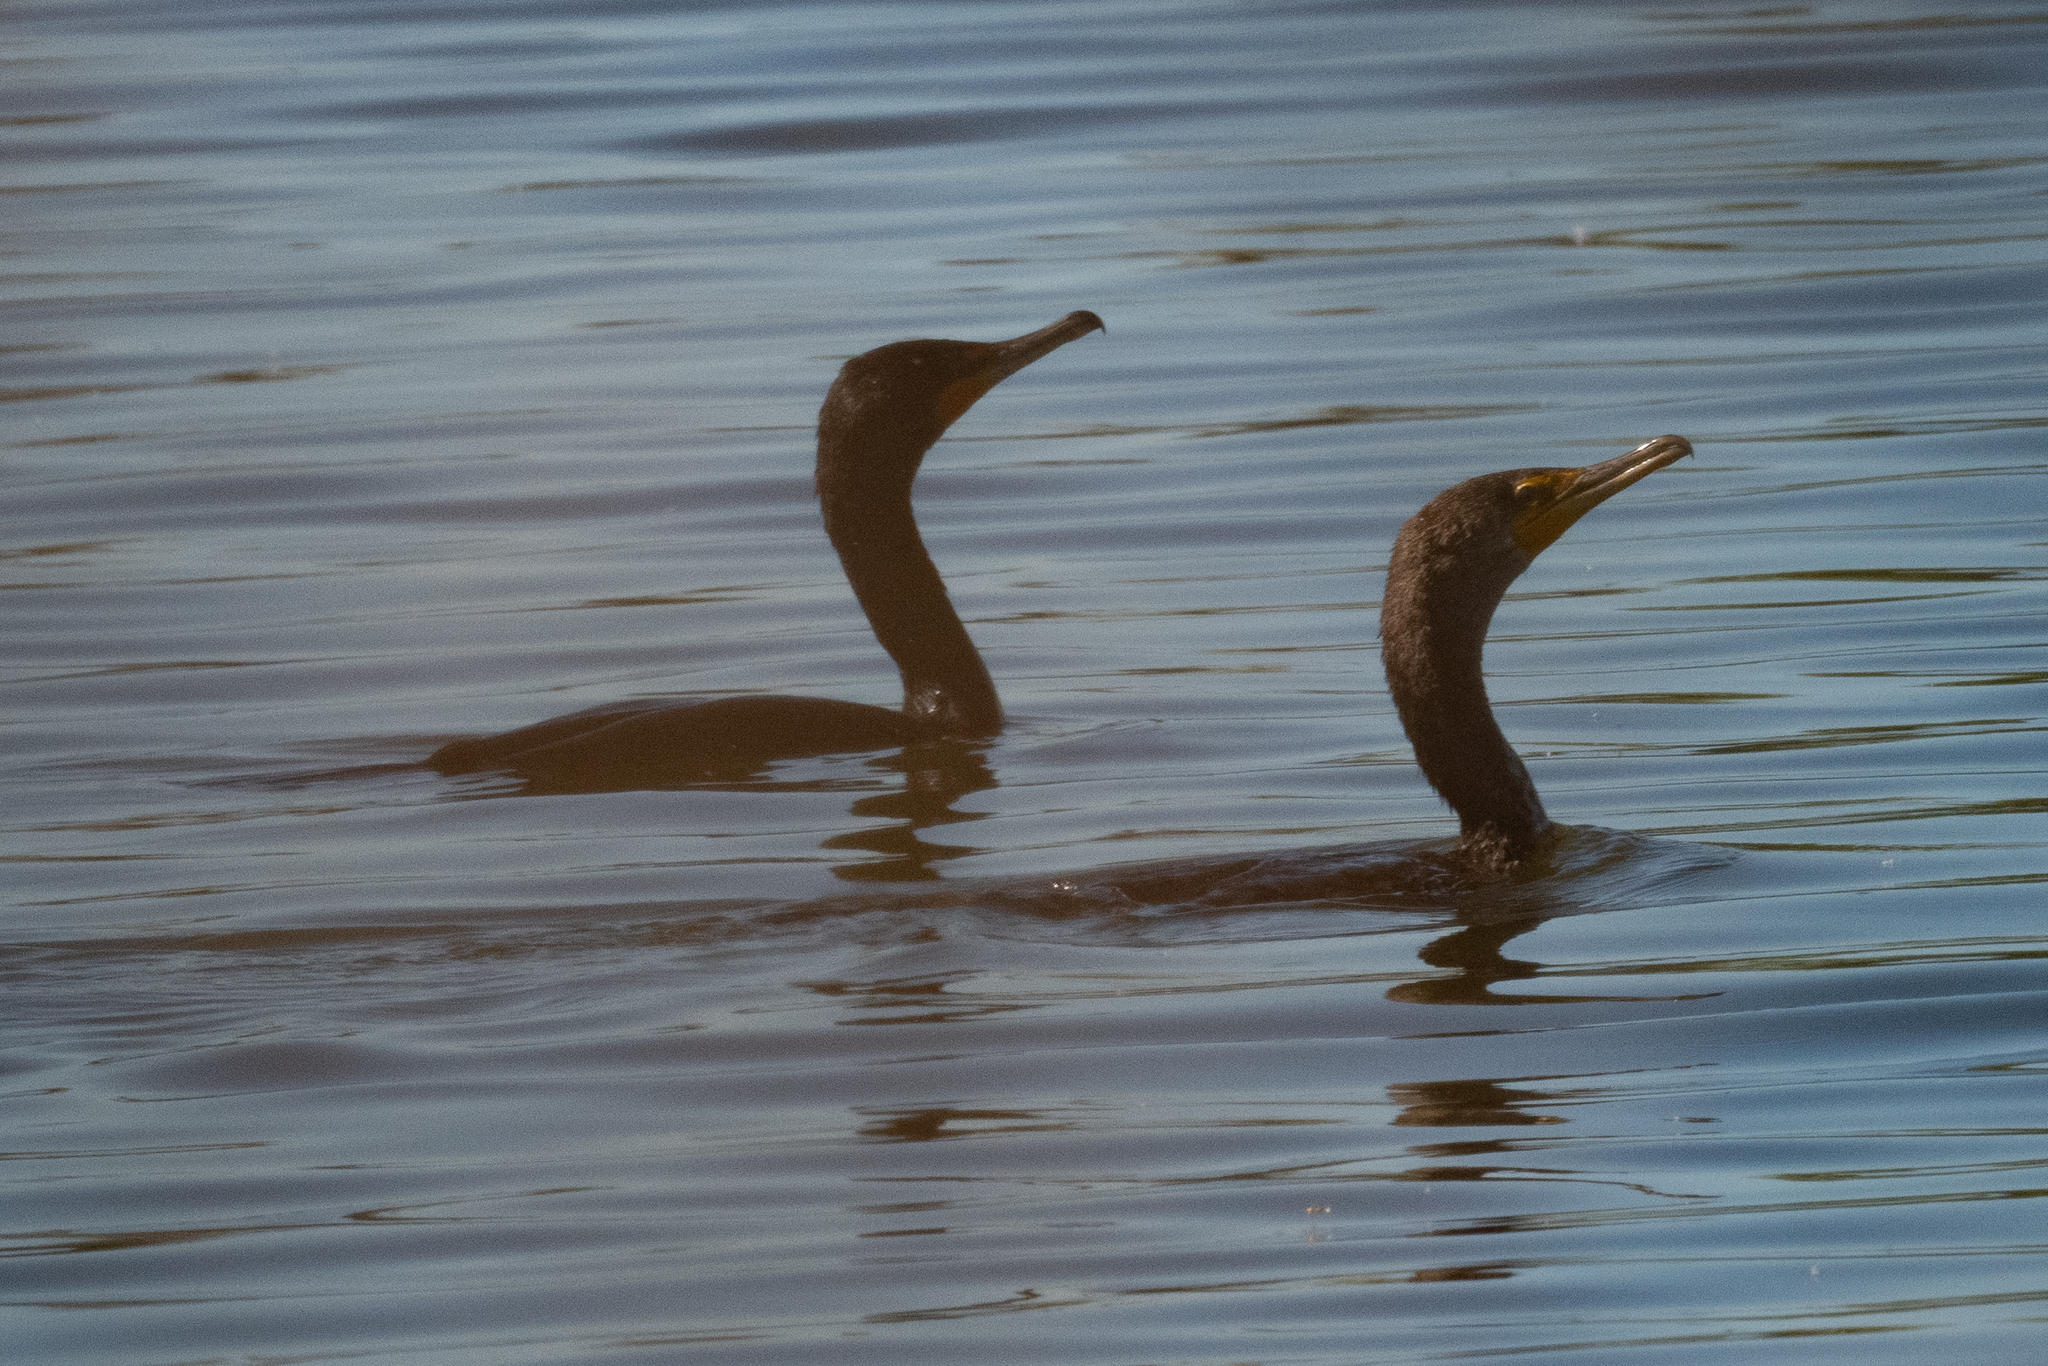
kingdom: Animalia
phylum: Chordata
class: Aves
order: Suliformes
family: Phalacrocoracidae
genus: Phalacrocorax
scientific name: Phalacrocorax auritus
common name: Double-crested cormorant
